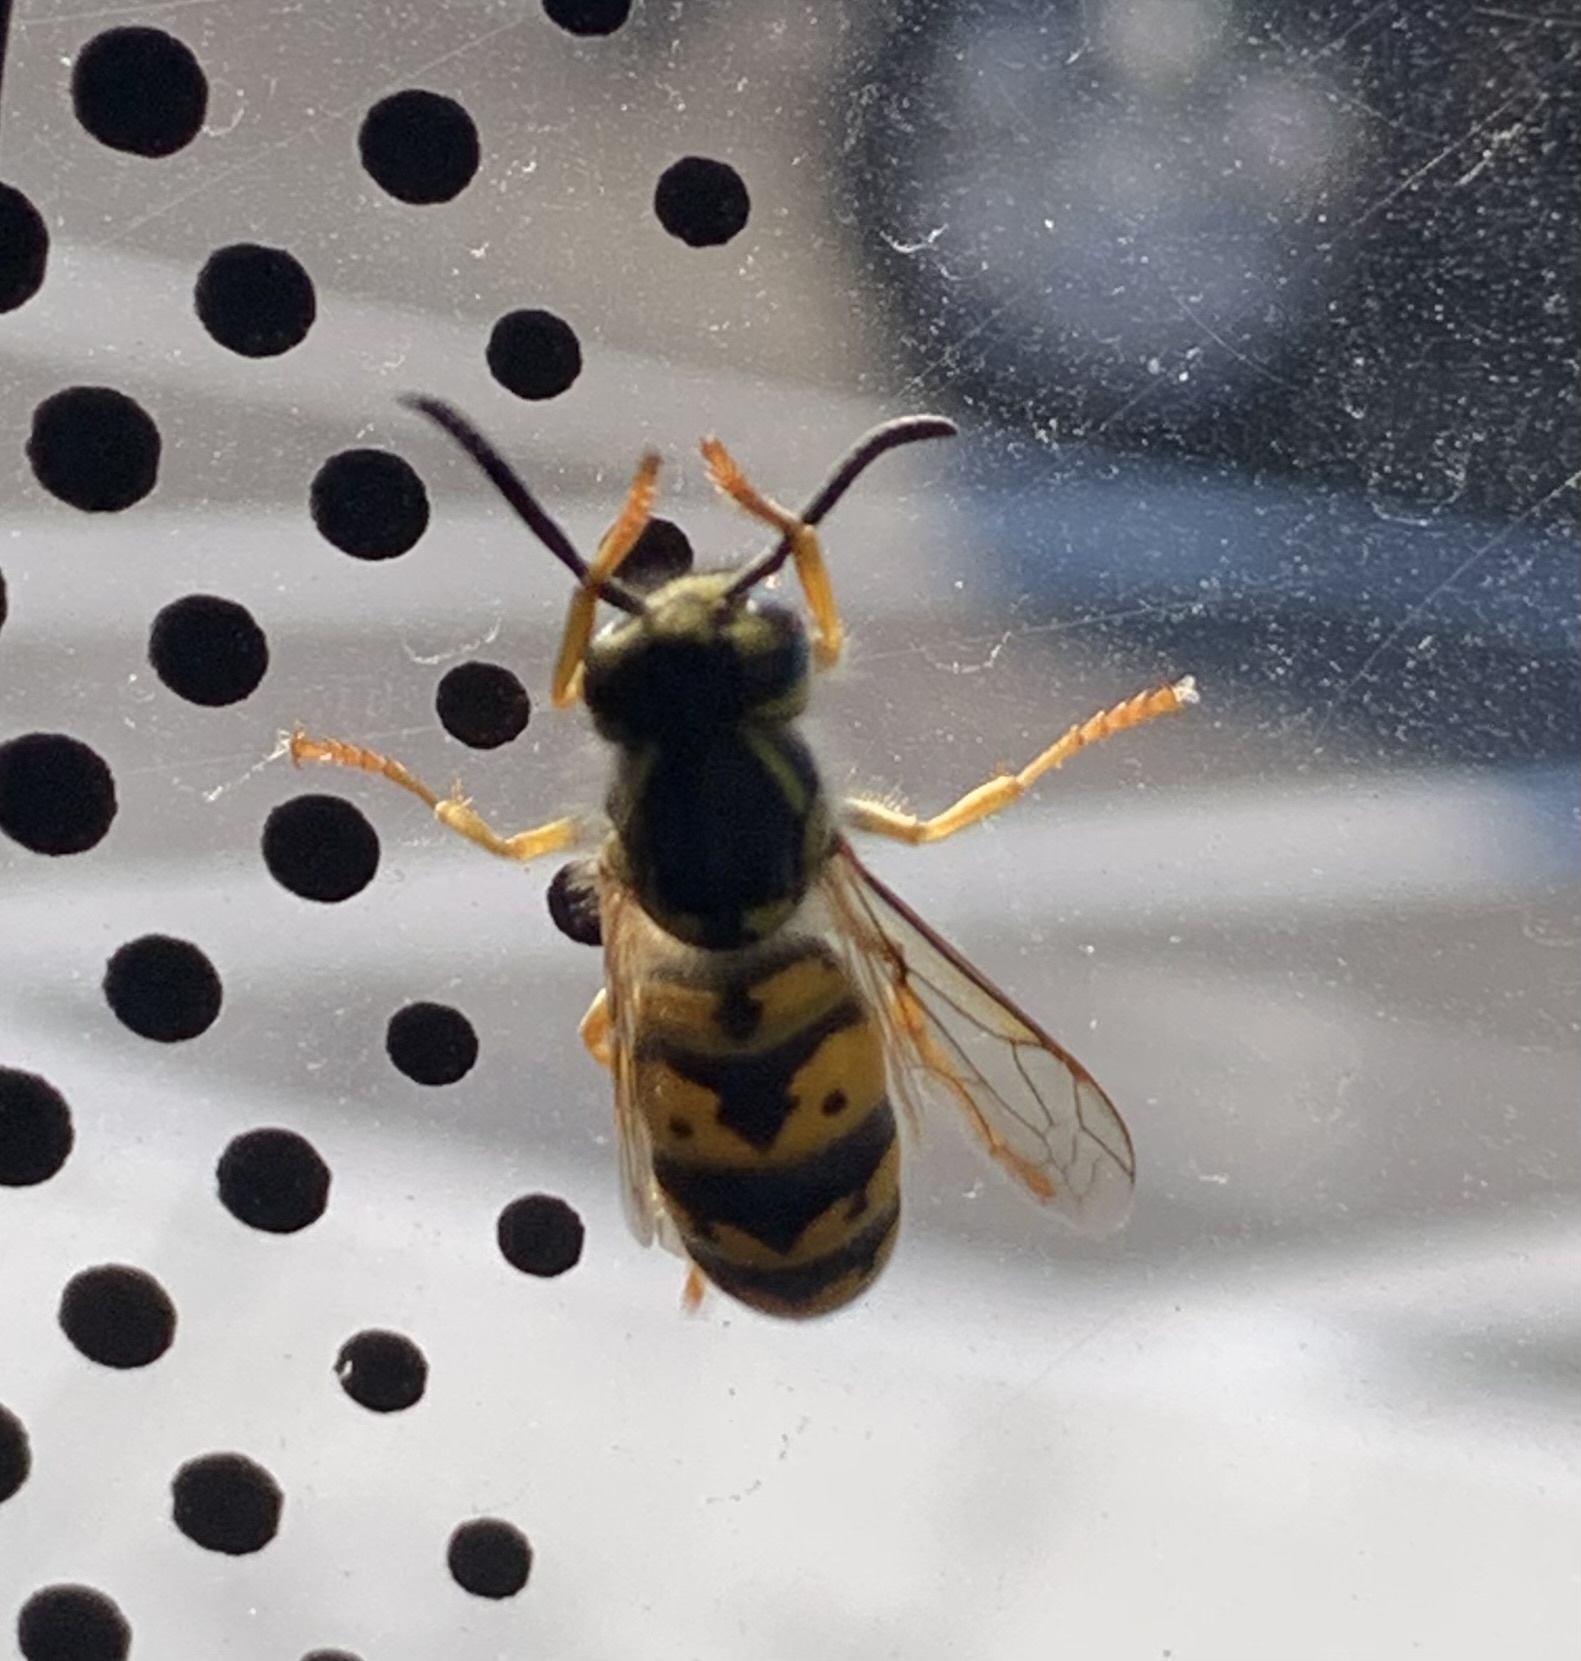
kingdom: Animalia
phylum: Arthropoda
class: Insecta
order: Hymenoptera
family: Vespidae
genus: Vespula
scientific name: Vespula germanica
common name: German wasp
